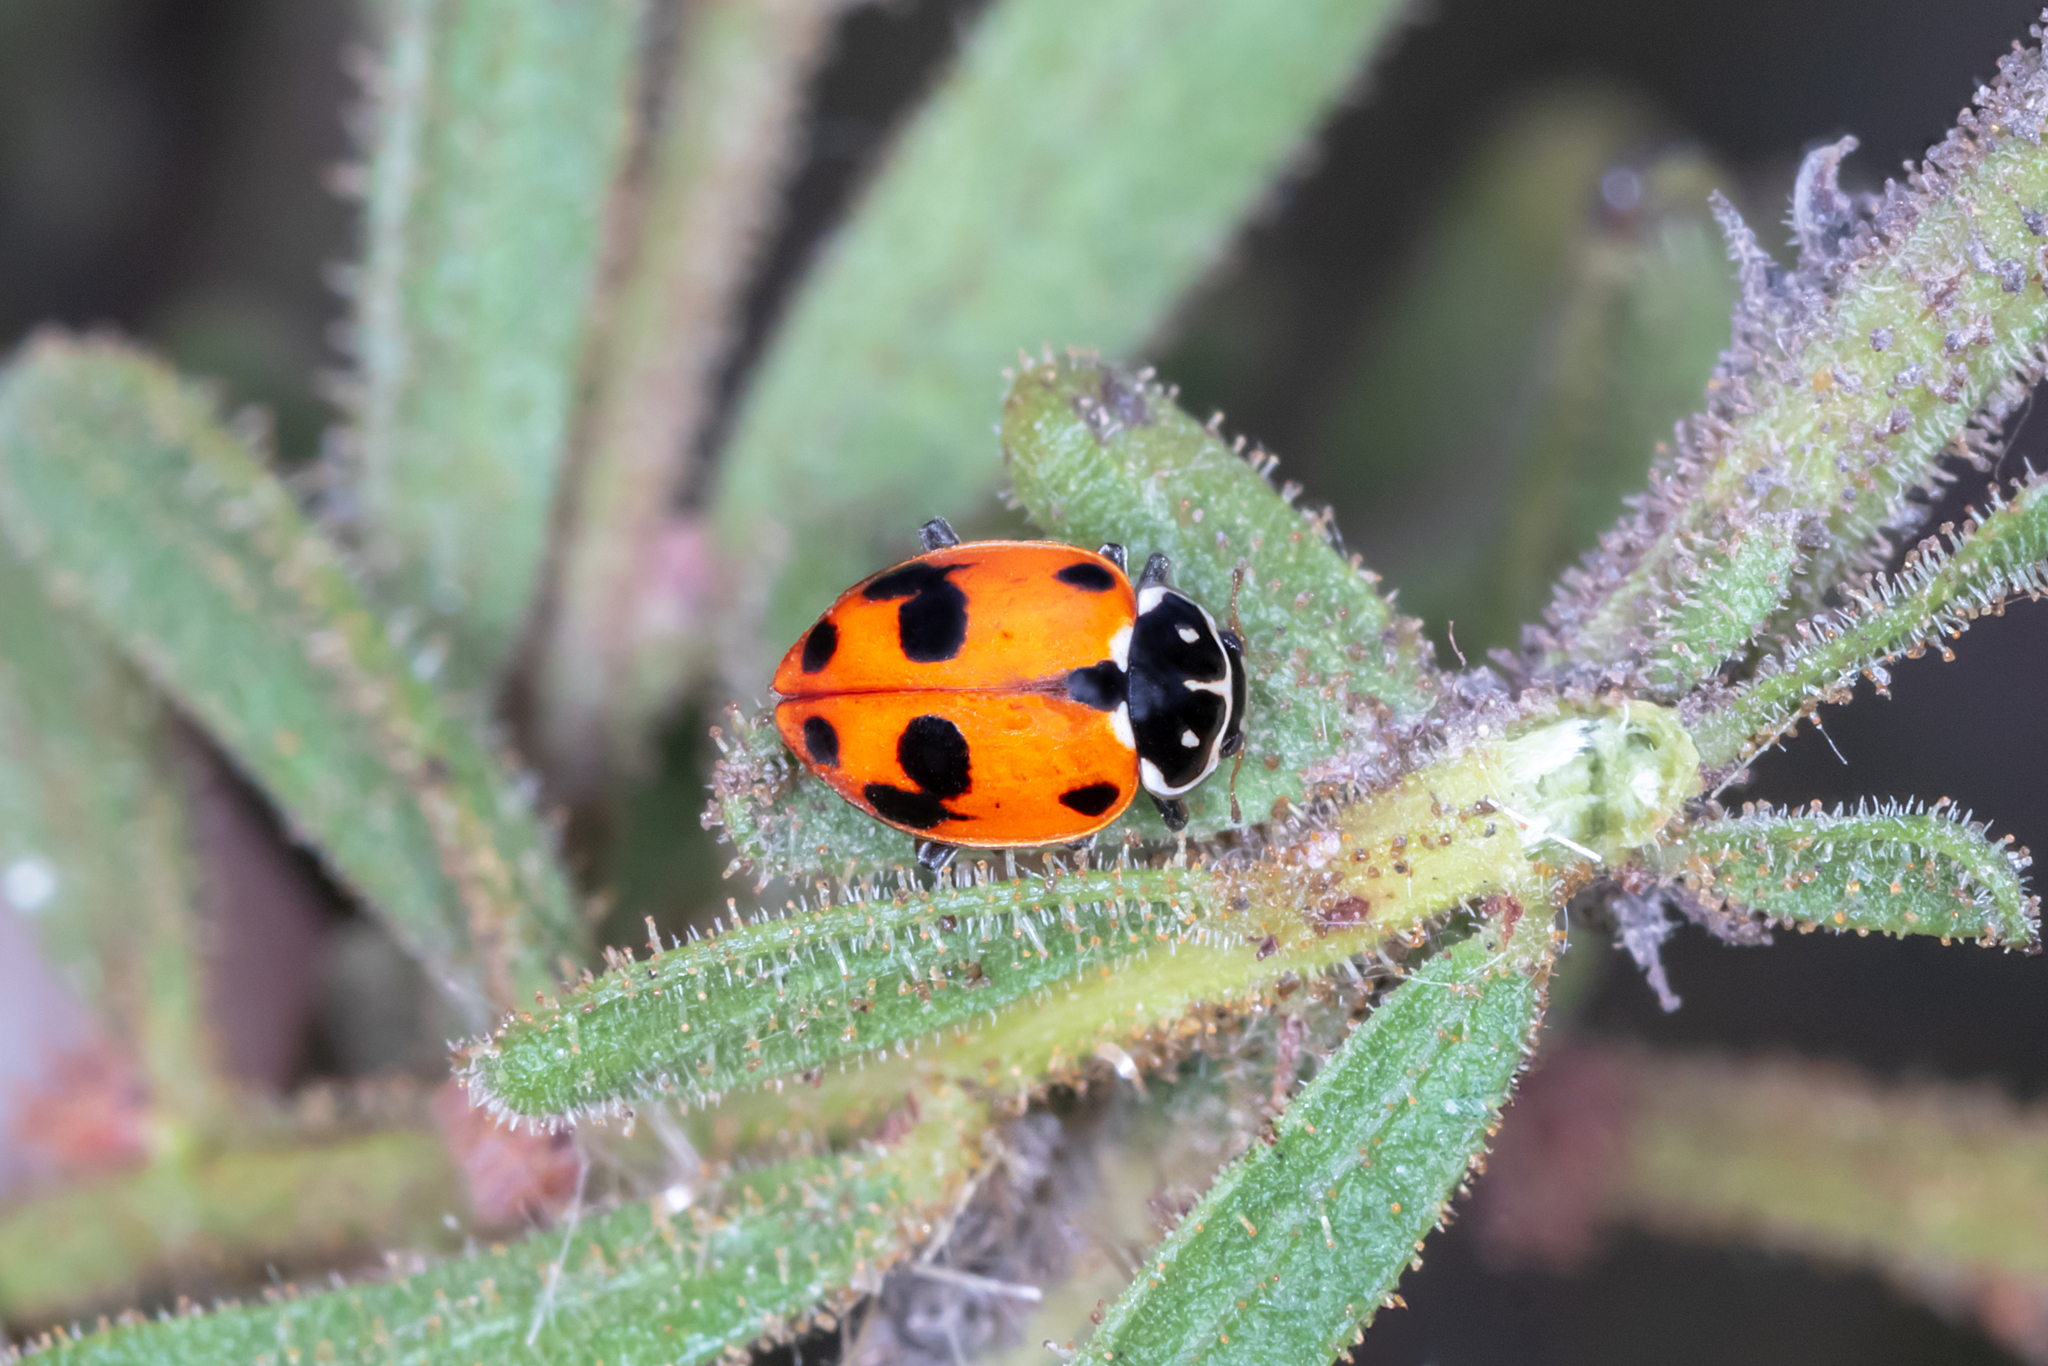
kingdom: Animalia
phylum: Arthropoda
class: Insecta
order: Coleoptera
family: Coccinellidae
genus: Hippodamia
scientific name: Hippodamia variegata
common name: Ladybird beetle
